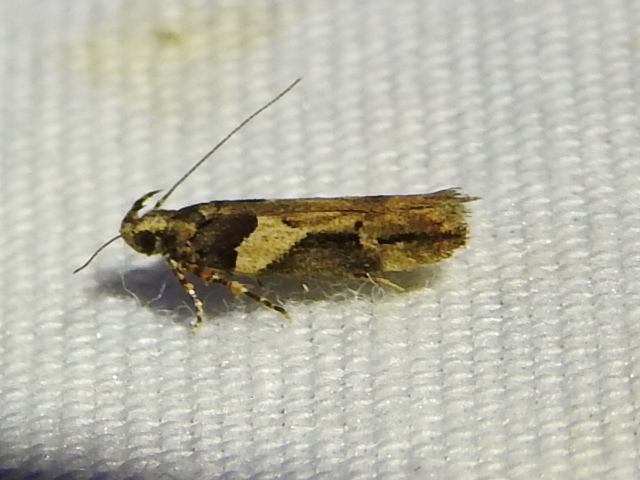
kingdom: Animalia
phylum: Arthropoda
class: Insecta
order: Lepidoptera
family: Gelechiidae
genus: Friseria
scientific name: Friseria acaciella
